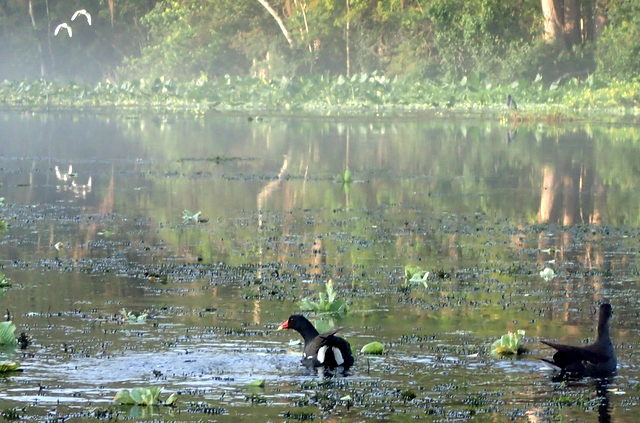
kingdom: Animalia
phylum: Chordata
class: Aves
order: Gruiformes
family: Rallidae
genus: Gallinula
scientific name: Gallinula chloropus
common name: Common moorhen
